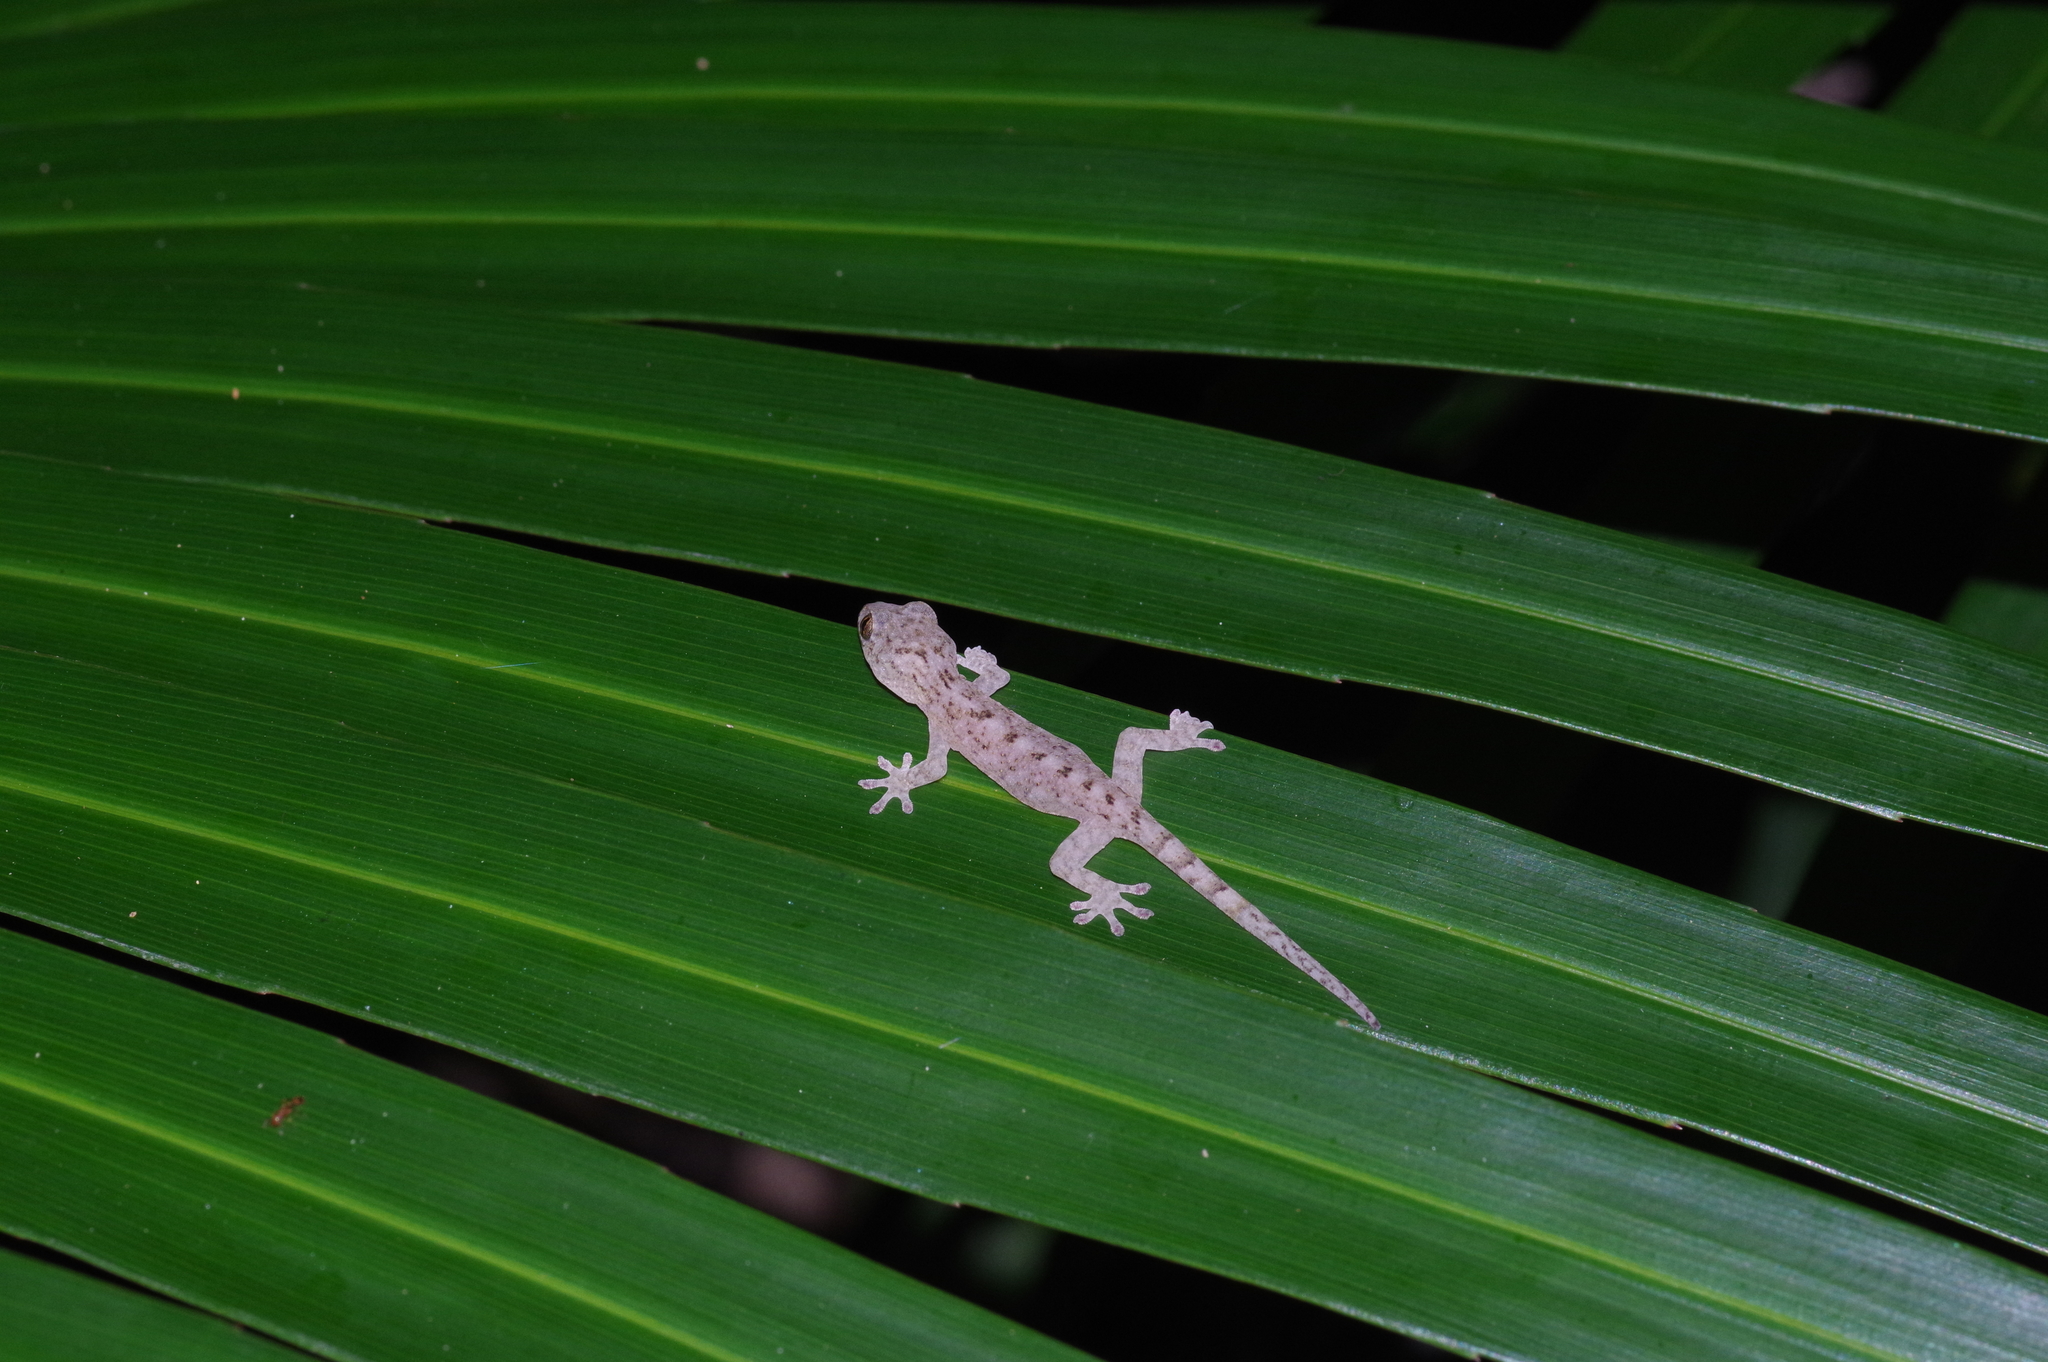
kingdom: Animalia
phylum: Chordata
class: Squamata
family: Gekkonidae
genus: Gekko
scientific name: Gekko hokouensis
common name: Kwangsi gecko
